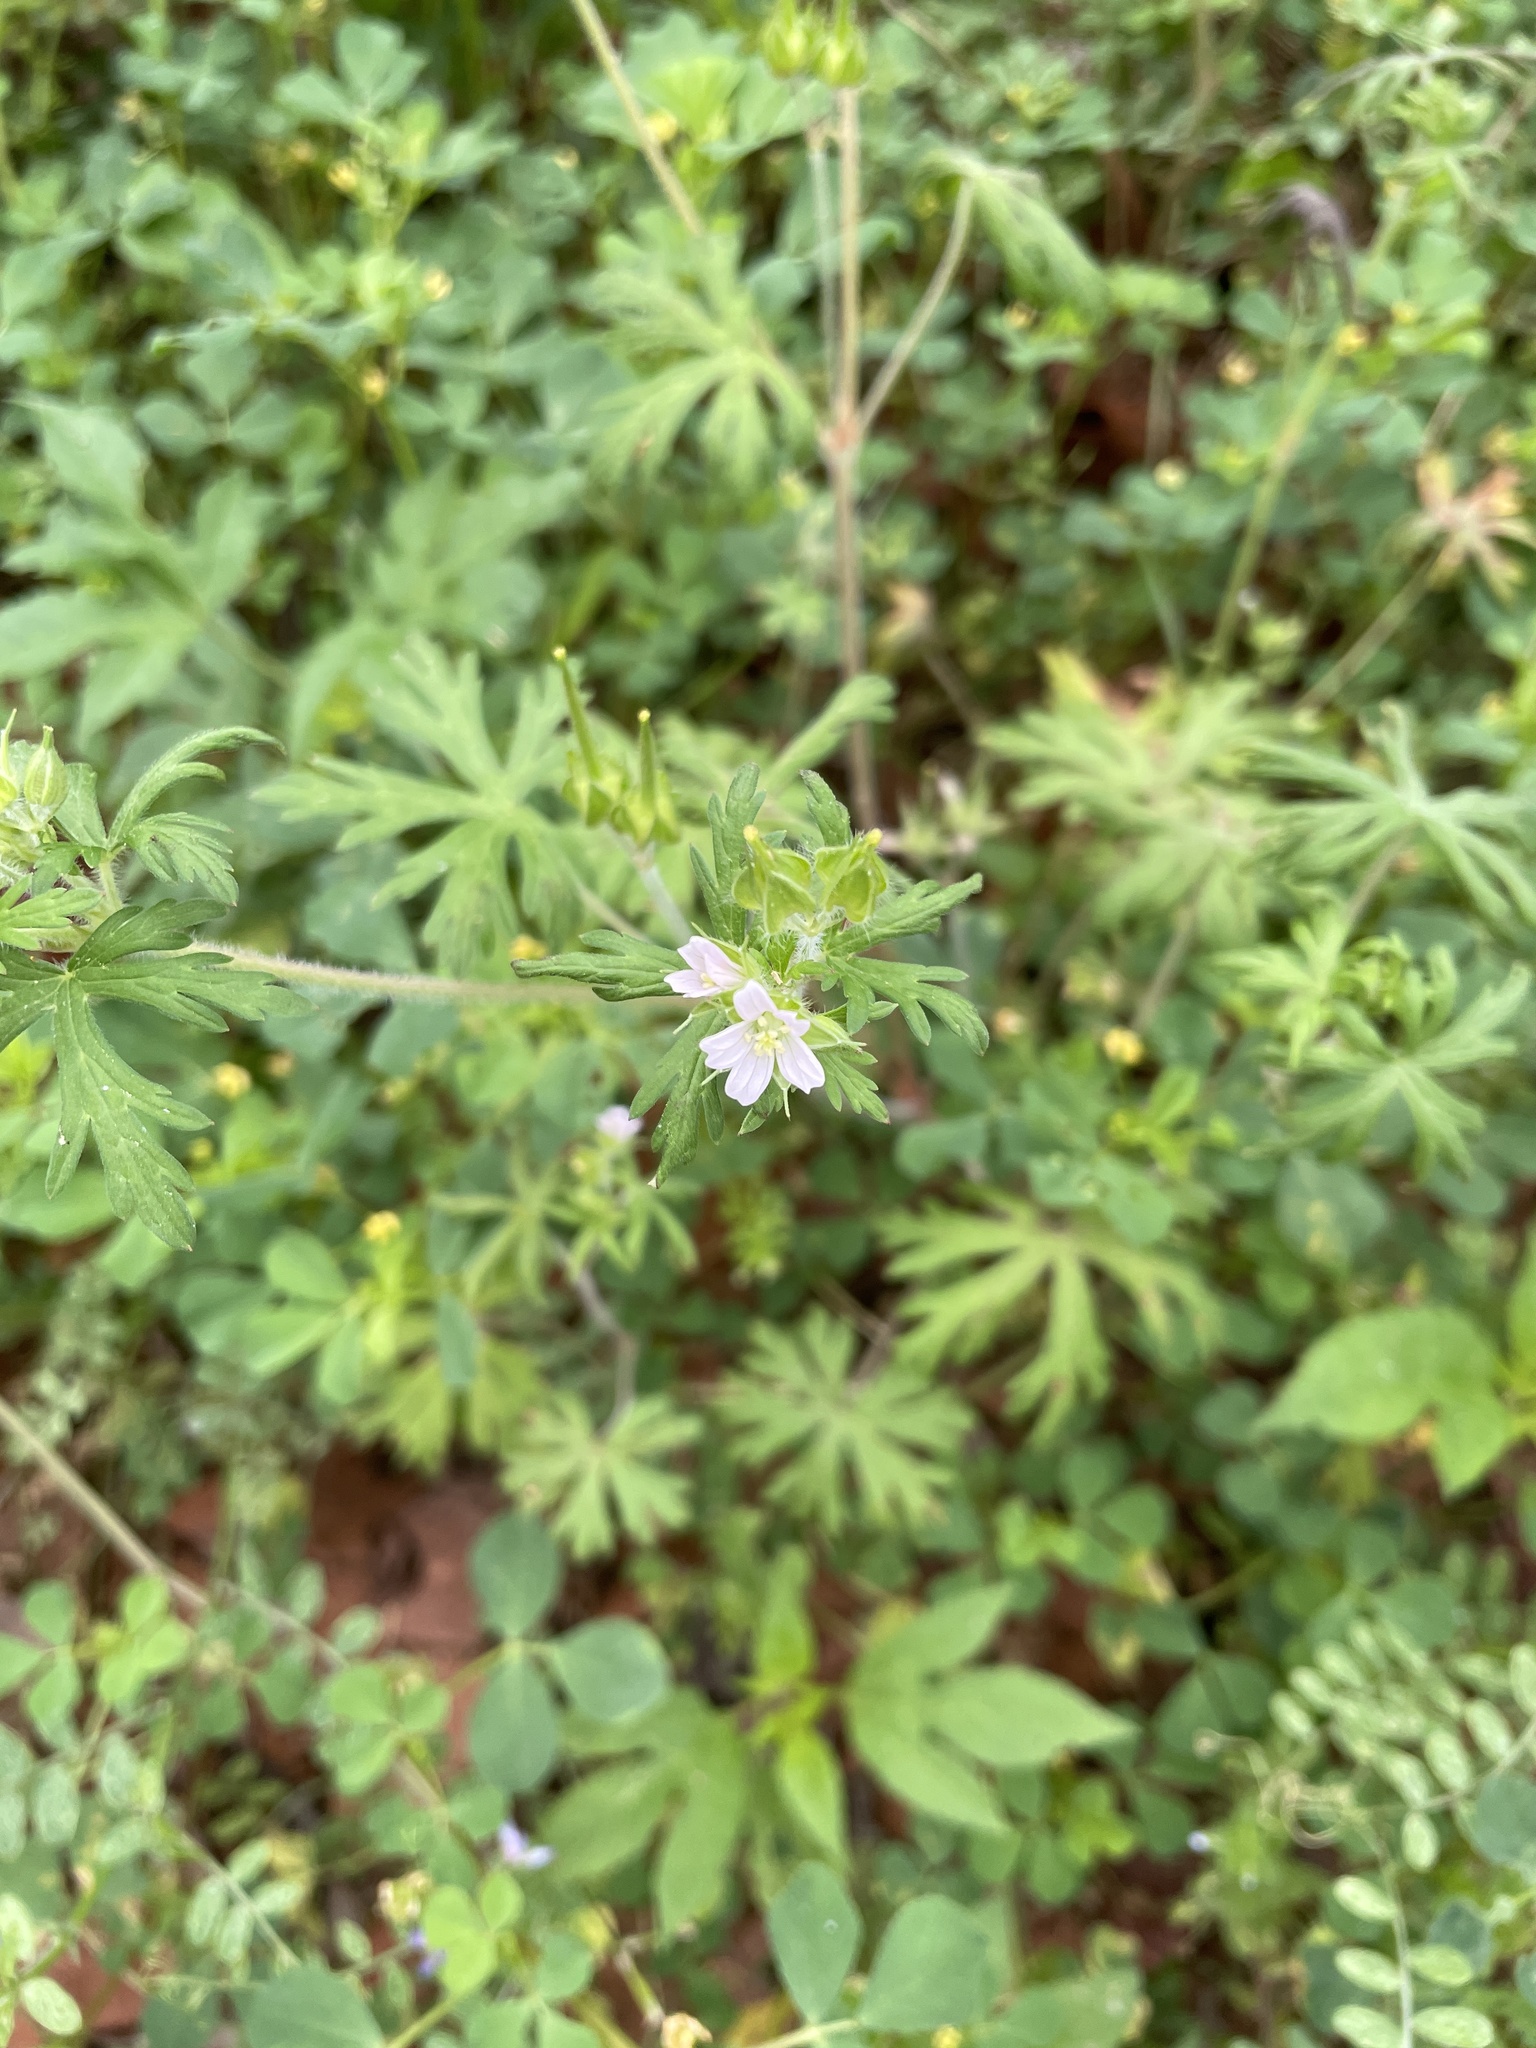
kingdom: Plantae
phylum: Tracheophyta
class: Magnoliopsida
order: Geraniales
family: Geraniaceae
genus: Geranium
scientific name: Geranium carolinianum
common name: Carolina crane's-bill
